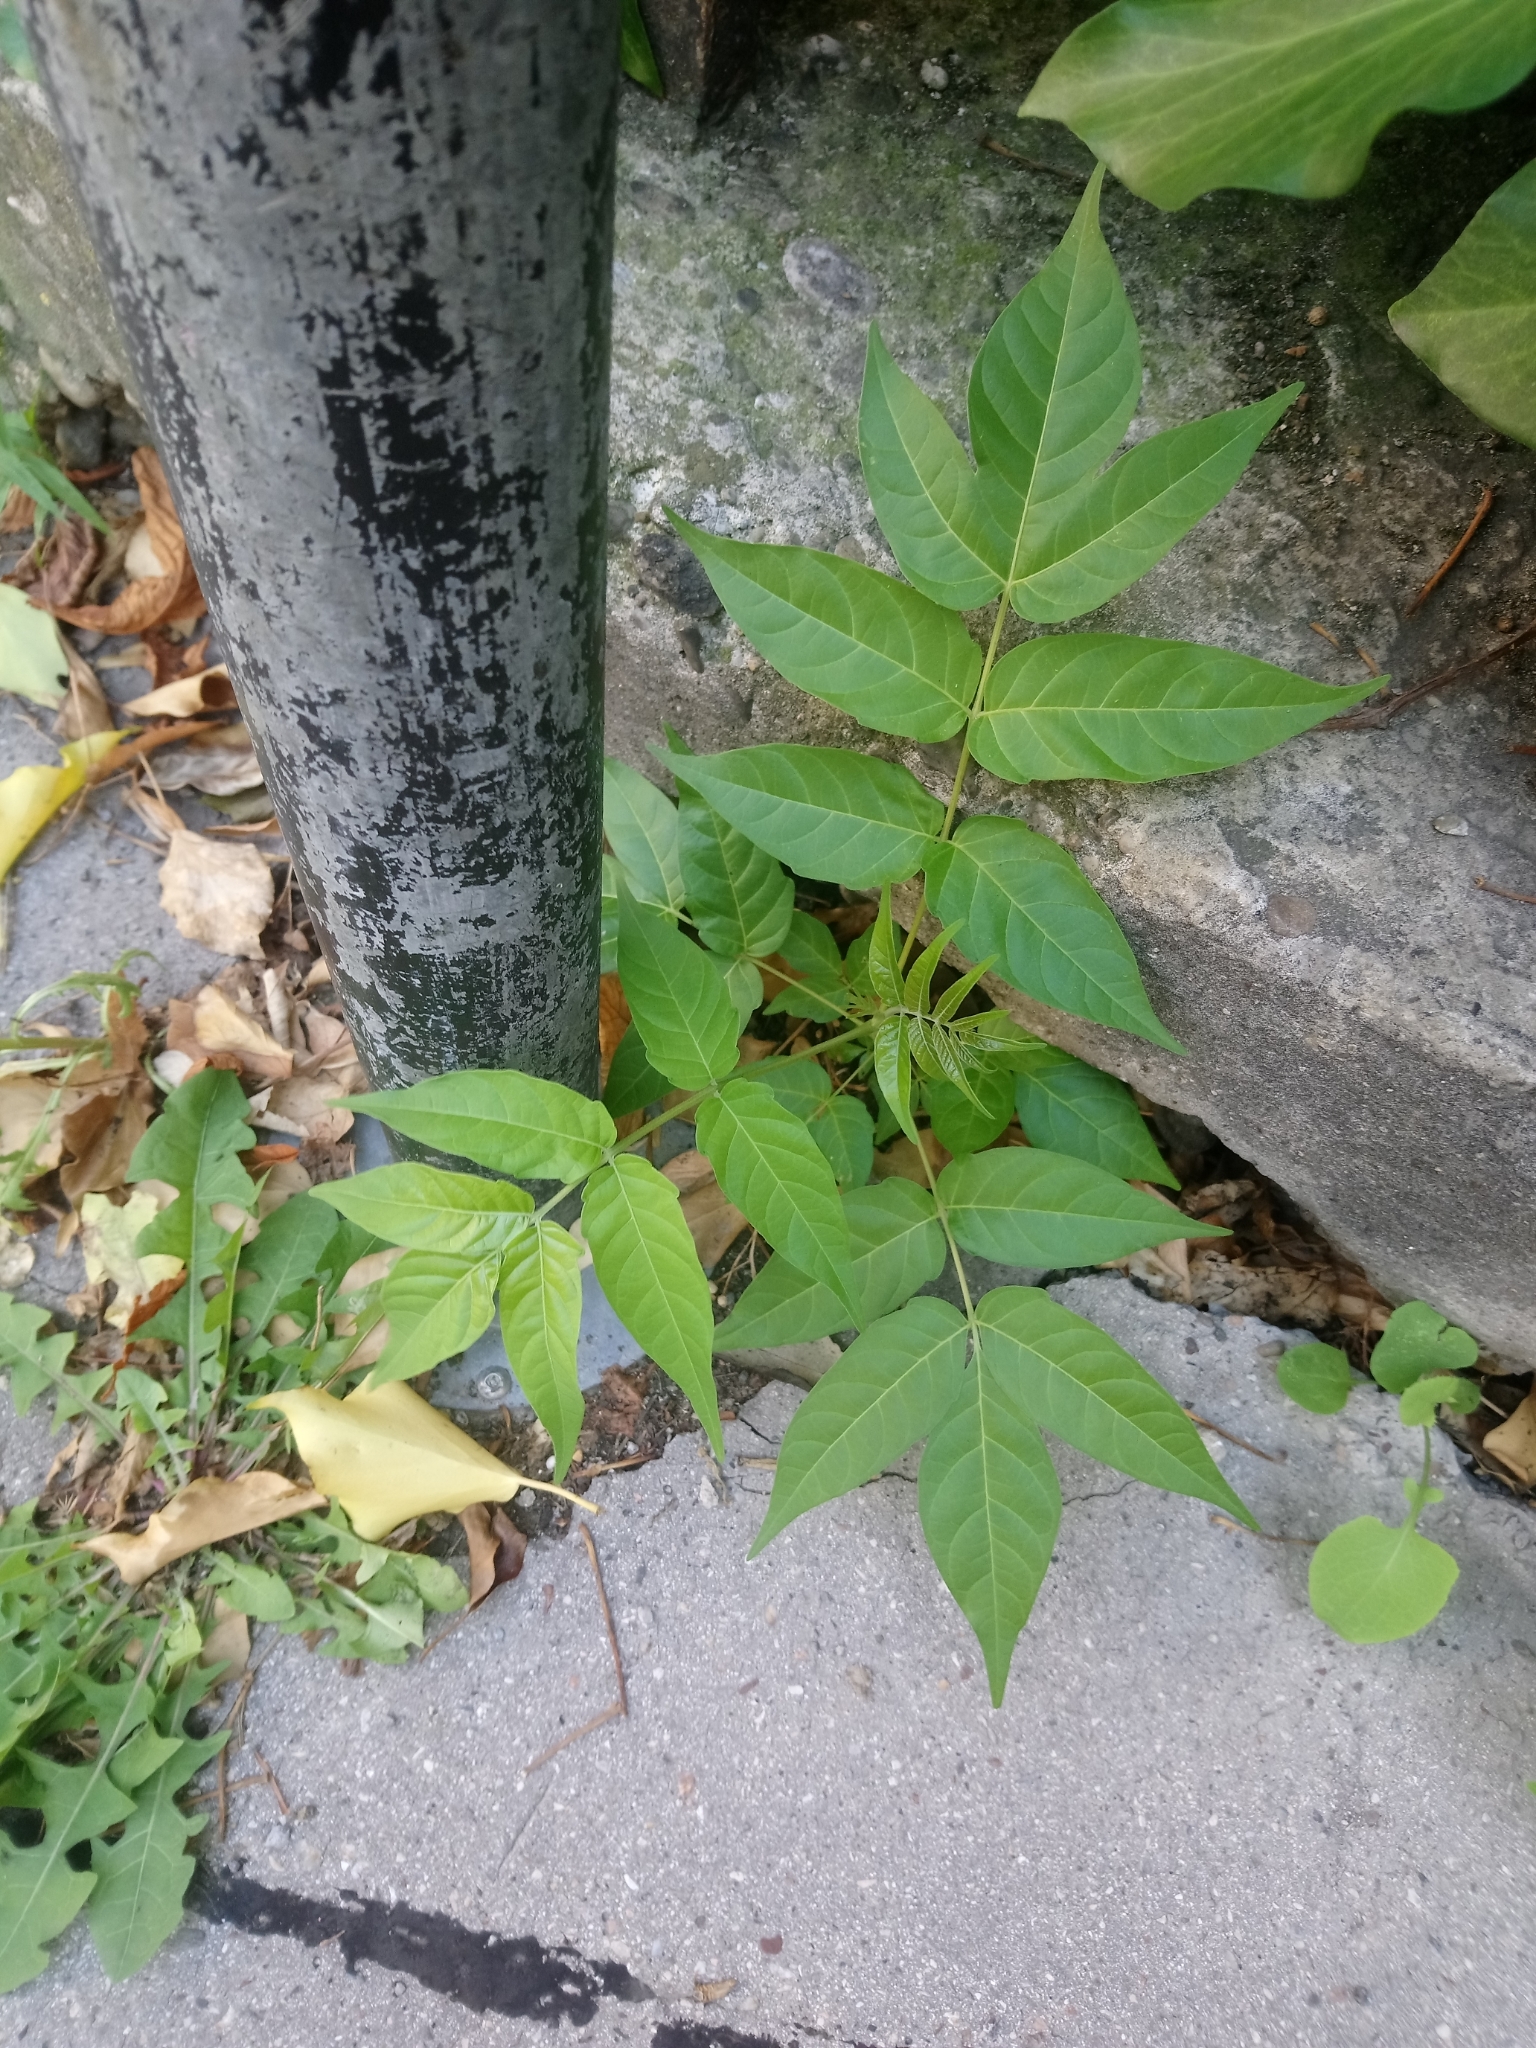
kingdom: Plantae
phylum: Tracheophyta
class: Magnoliopsida
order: Sapindales
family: Simaroubaceae
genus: Ailanthus
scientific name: Ailanthus altissima
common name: Tree-of-heaven
